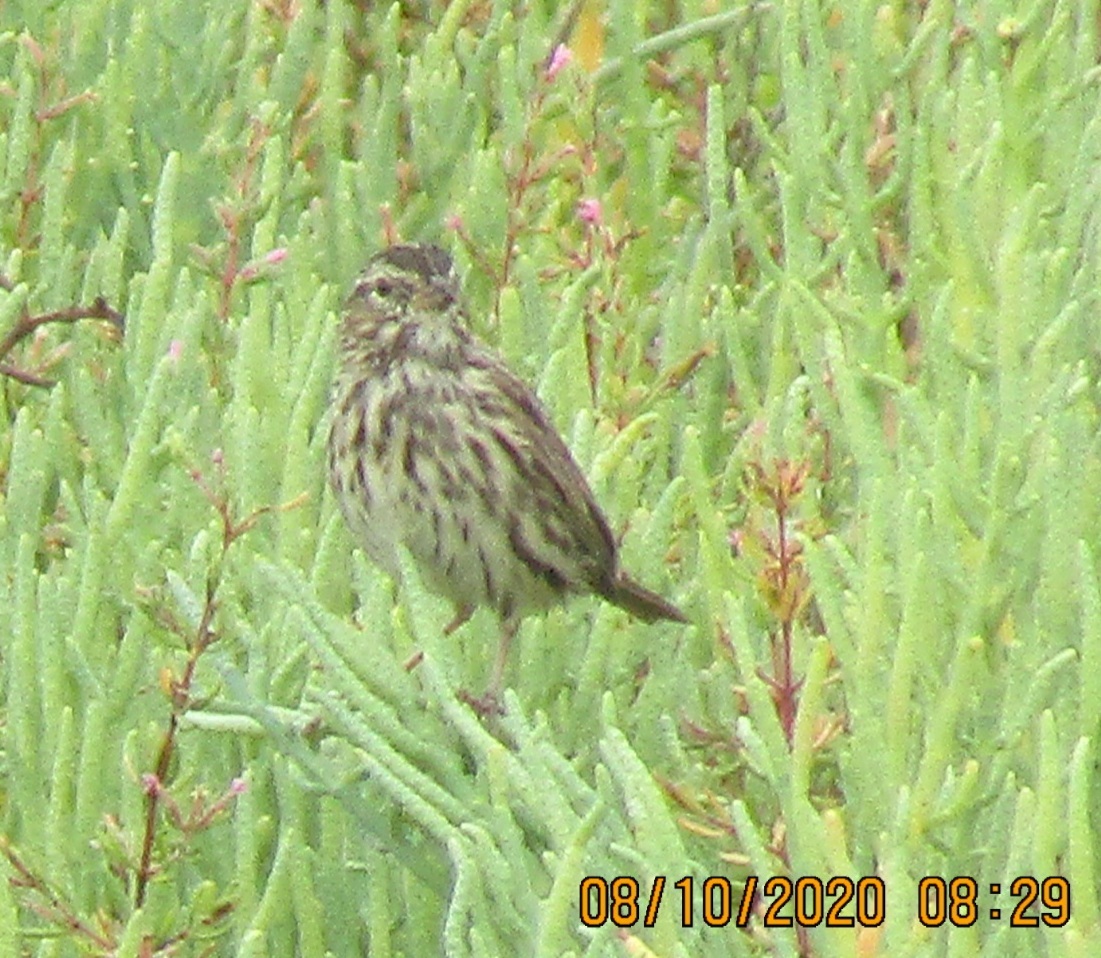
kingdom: Animalia
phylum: Chordata
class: Aves
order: Passeriformes
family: Passerellidae
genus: Passerculus
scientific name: Passerculus sandwichensis
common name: Savannah sparrow
